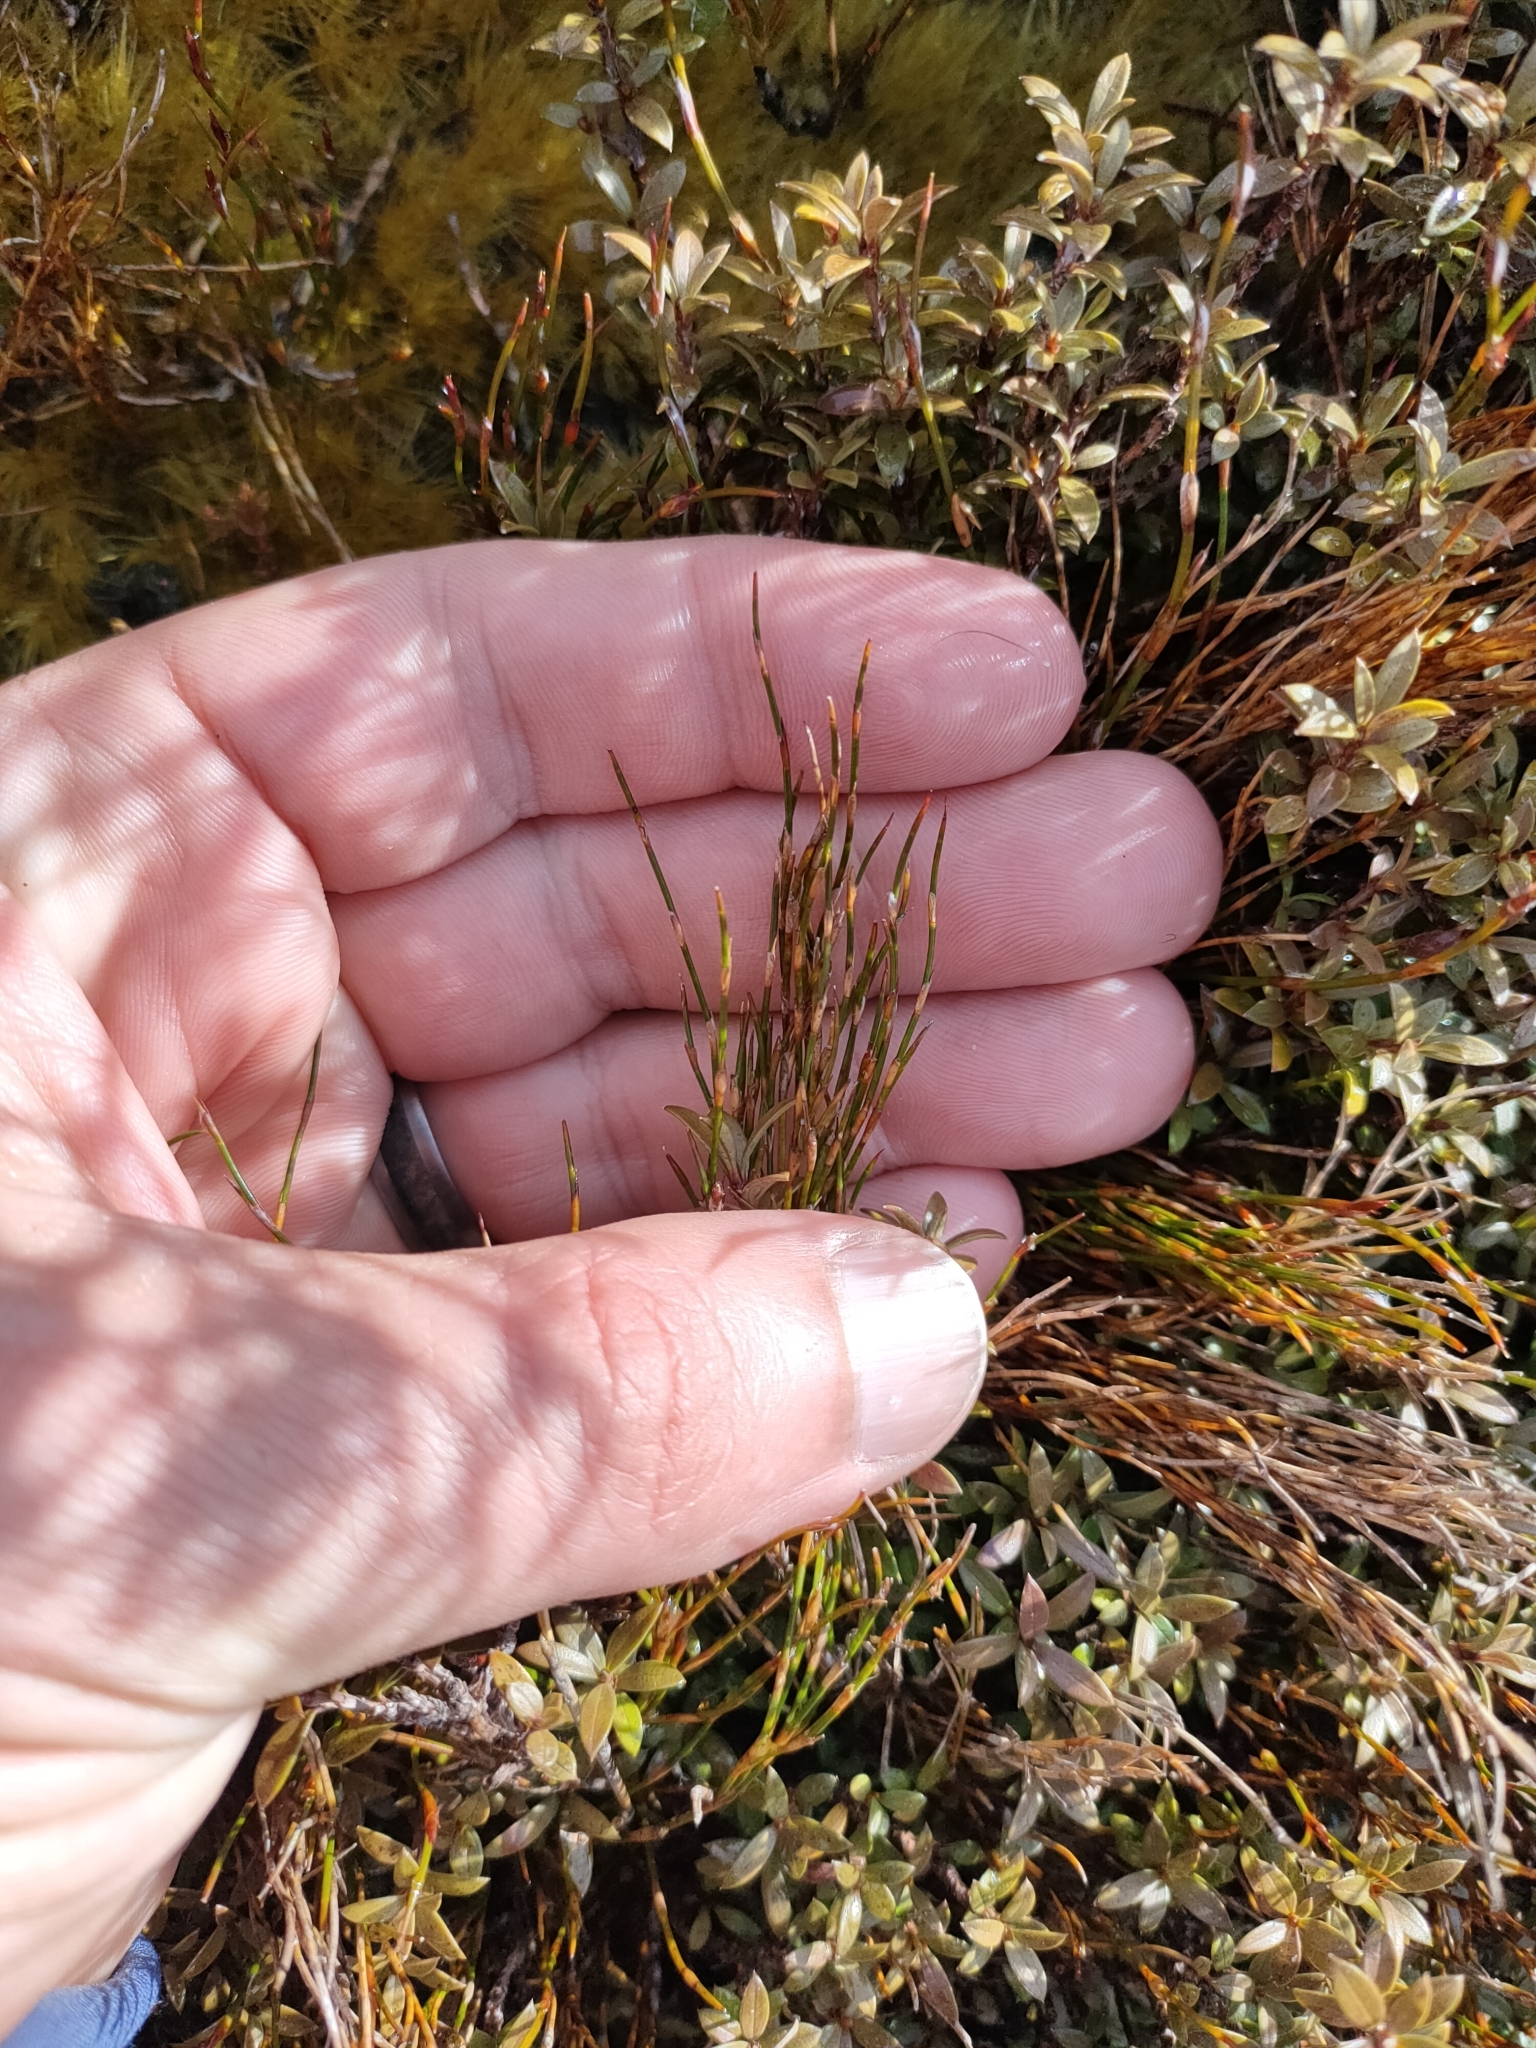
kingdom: Plantae
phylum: Tracheophyta
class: Liliopsida
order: Poales
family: Restionaceae
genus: Empodisma
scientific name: Empodisma minus
